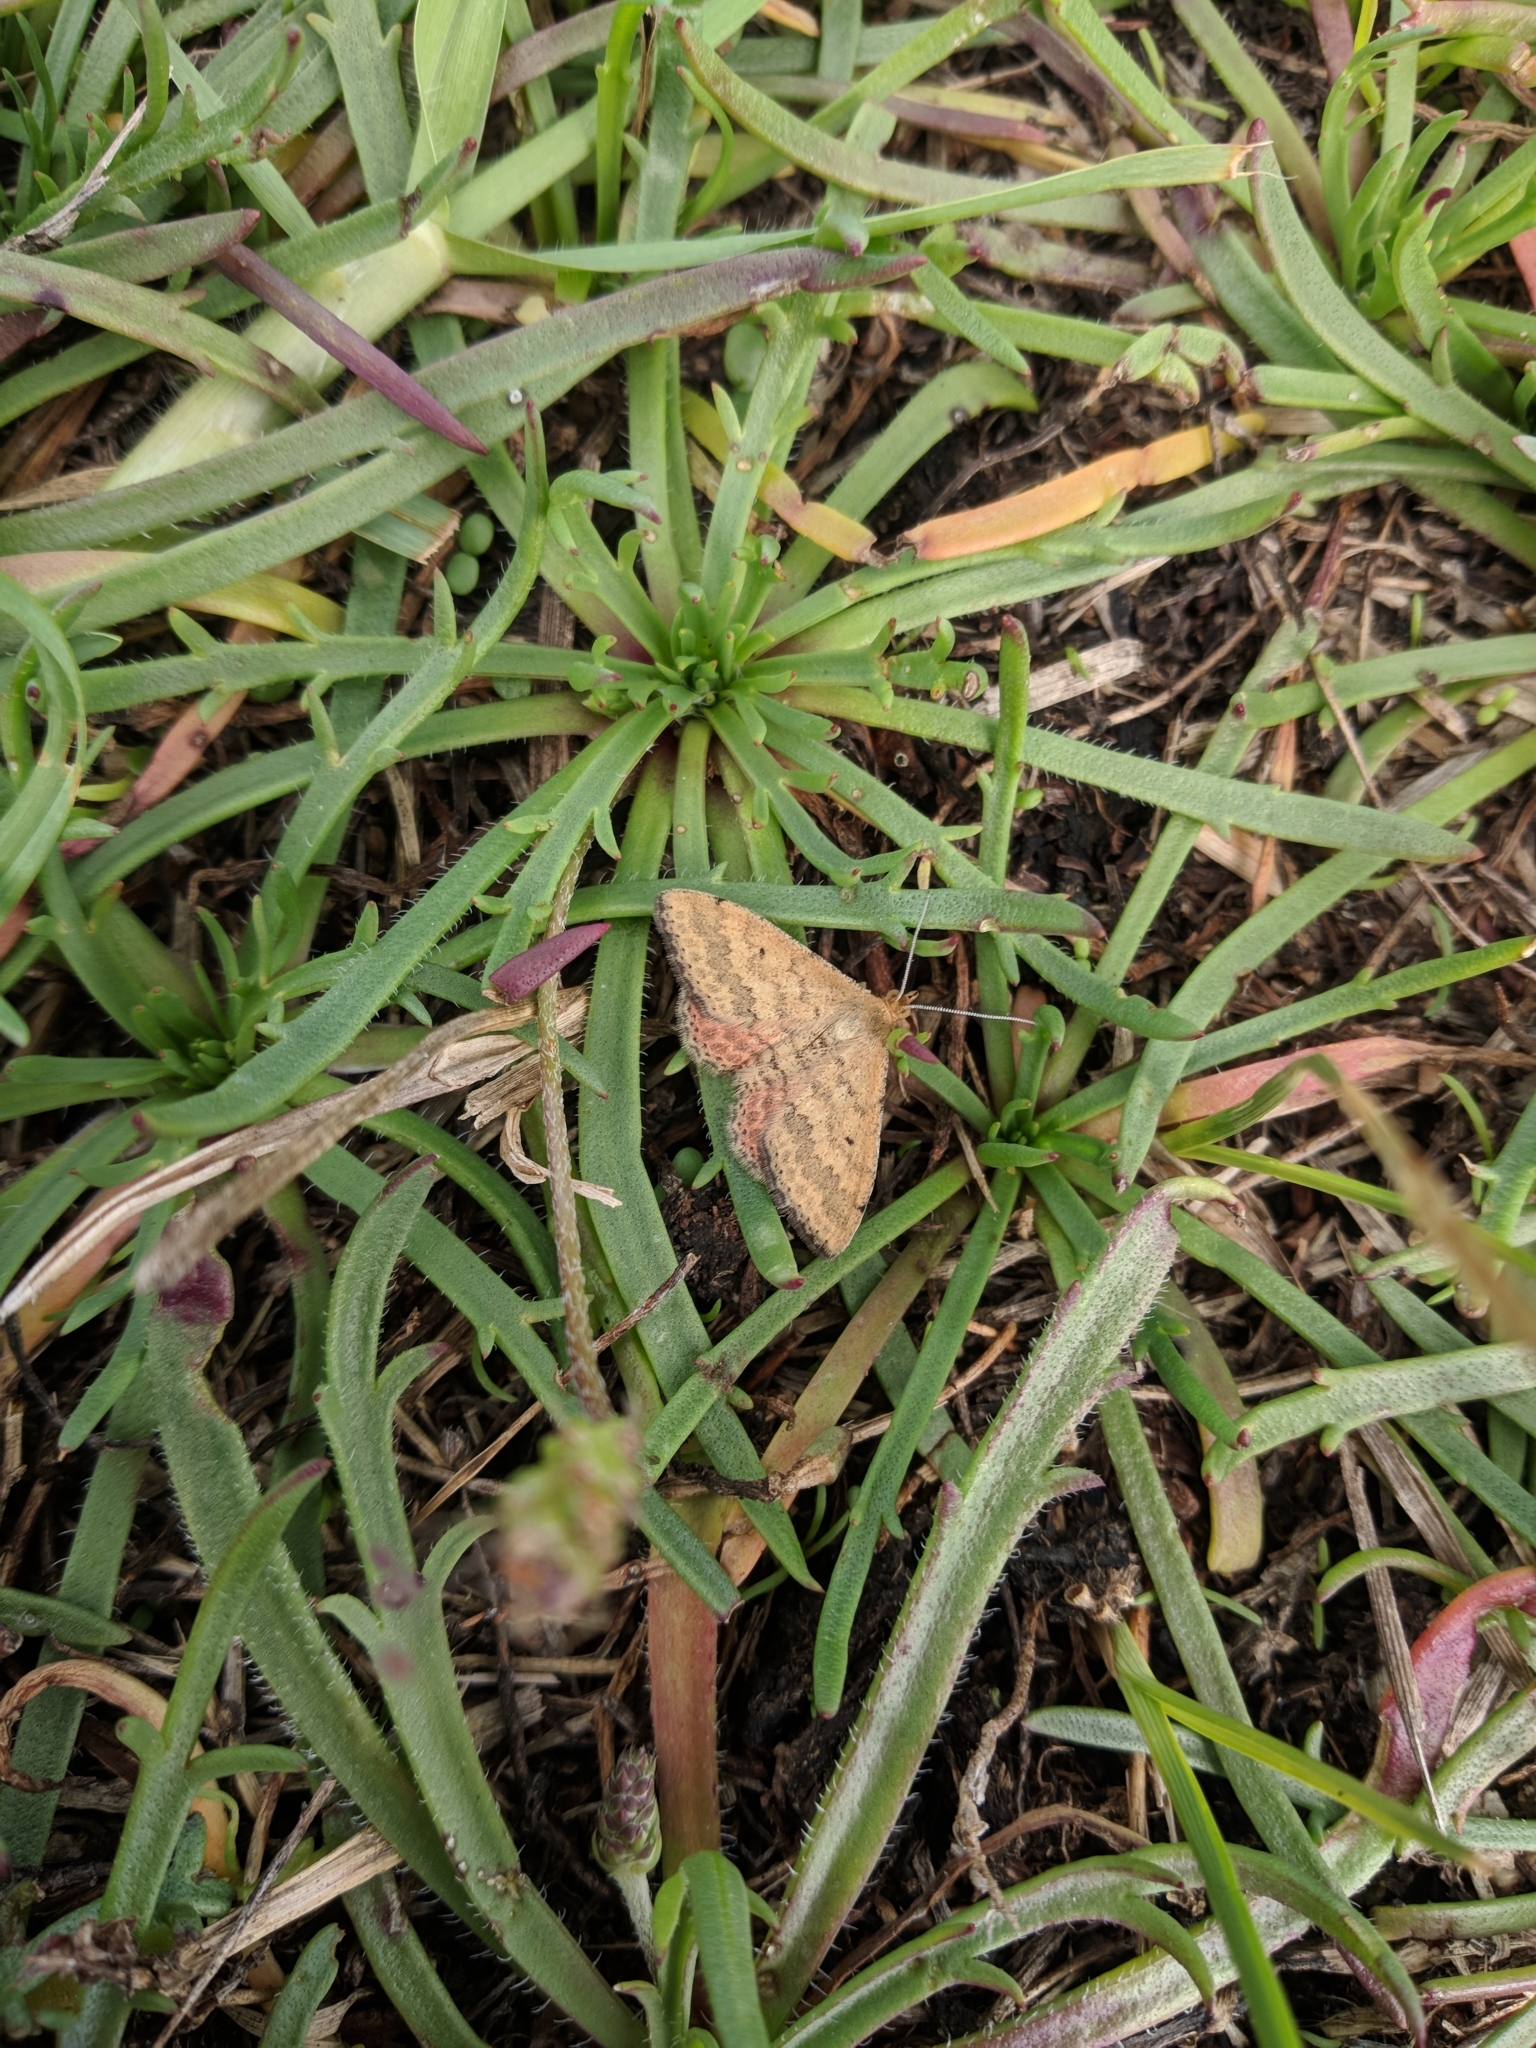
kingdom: Animalia
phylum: Arthropoda
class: Insecta
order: Lepidoptera
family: Geometridae
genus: Scopula
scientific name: Scopula rubraria
